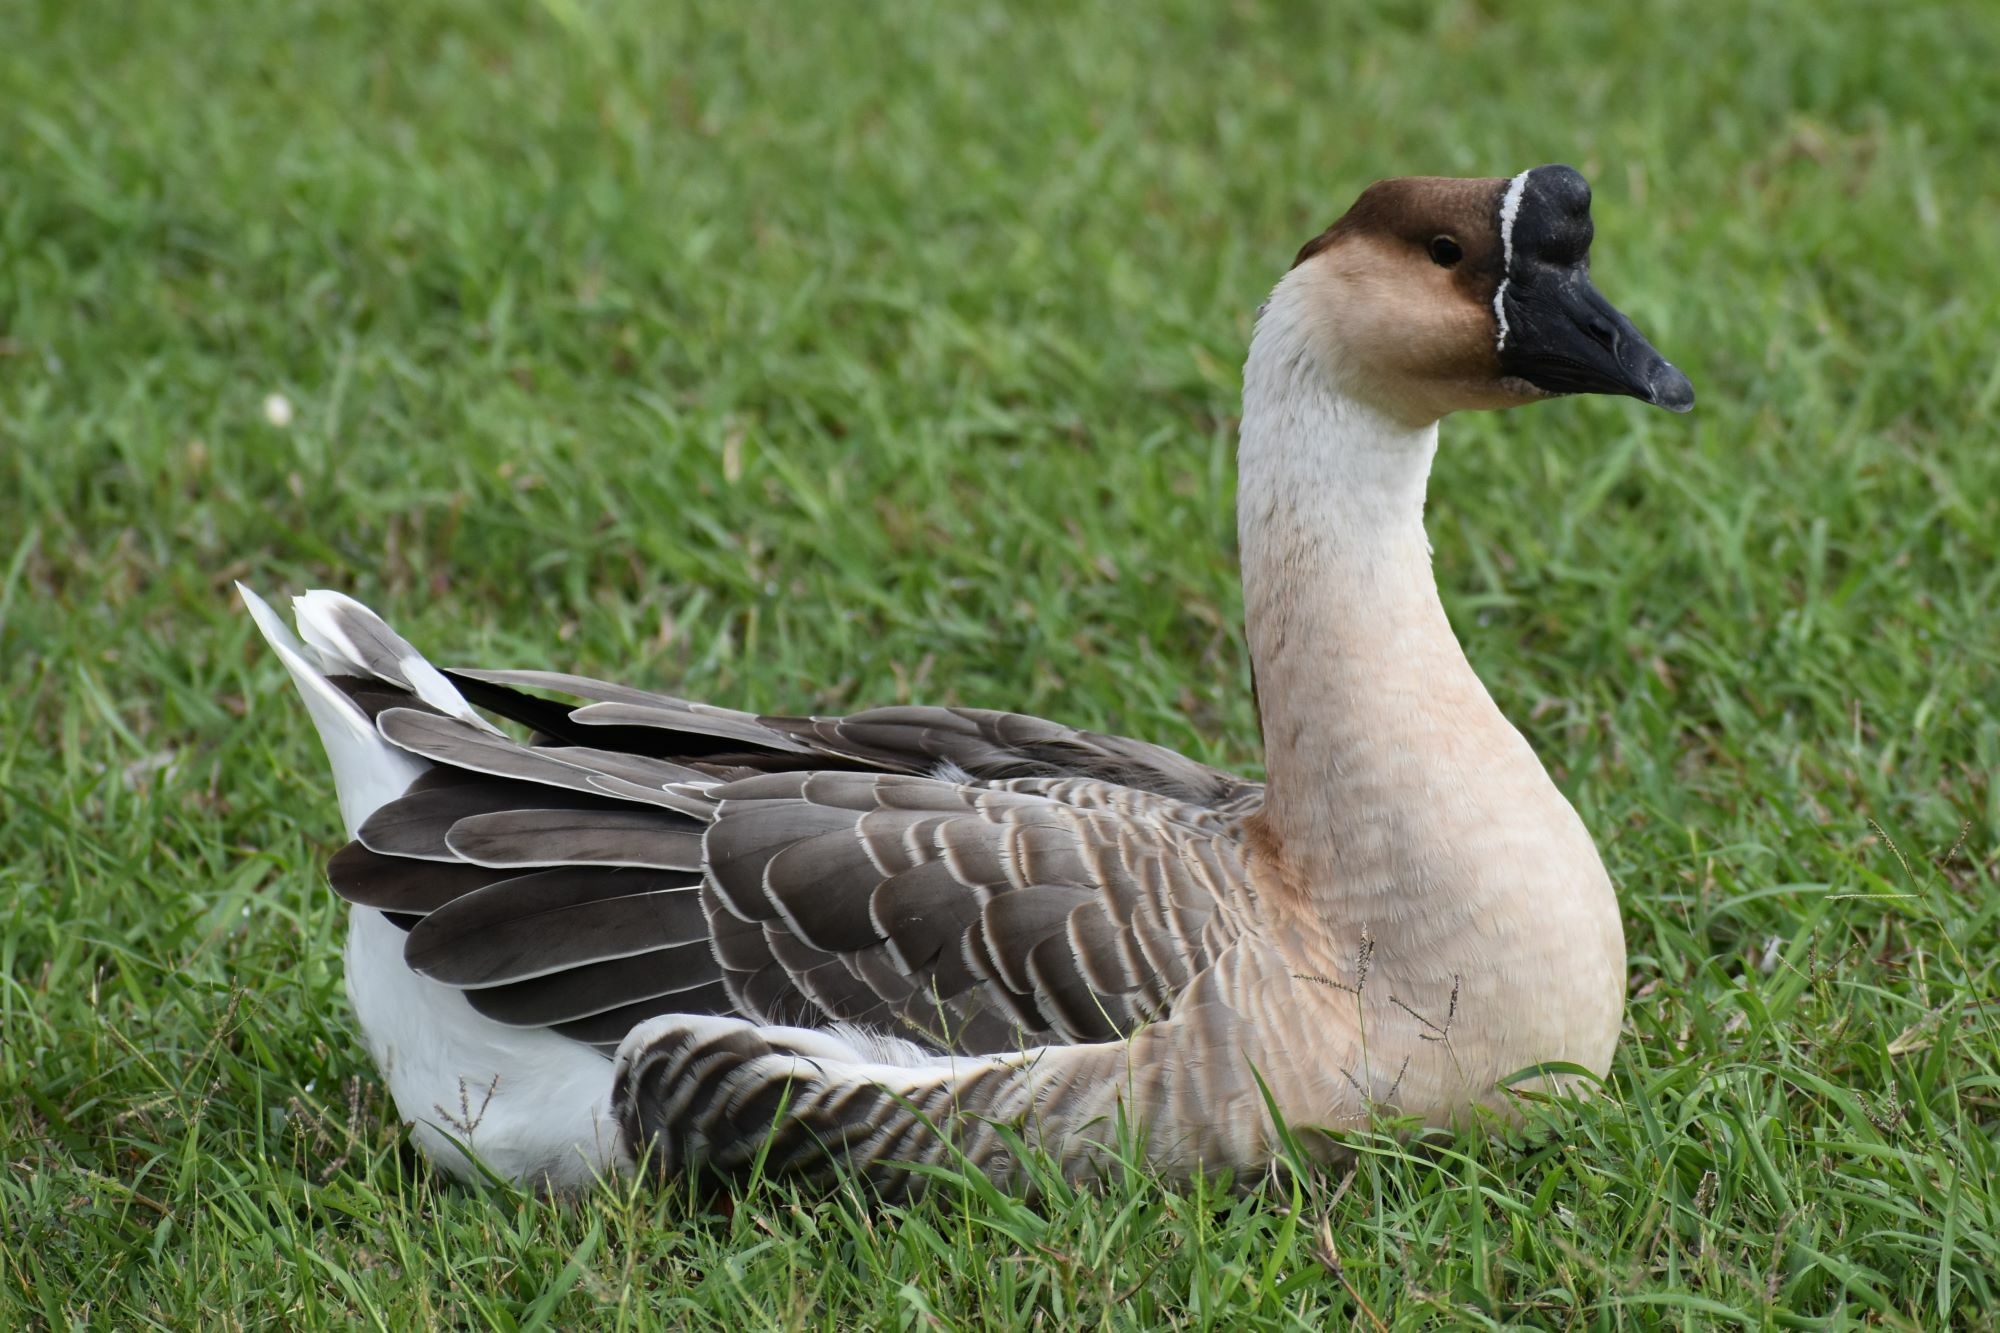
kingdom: Animalia
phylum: Chordata
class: Aves
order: Anseriformes
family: Anatidae
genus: Anser
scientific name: Anser cygnoides
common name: Swan goose
